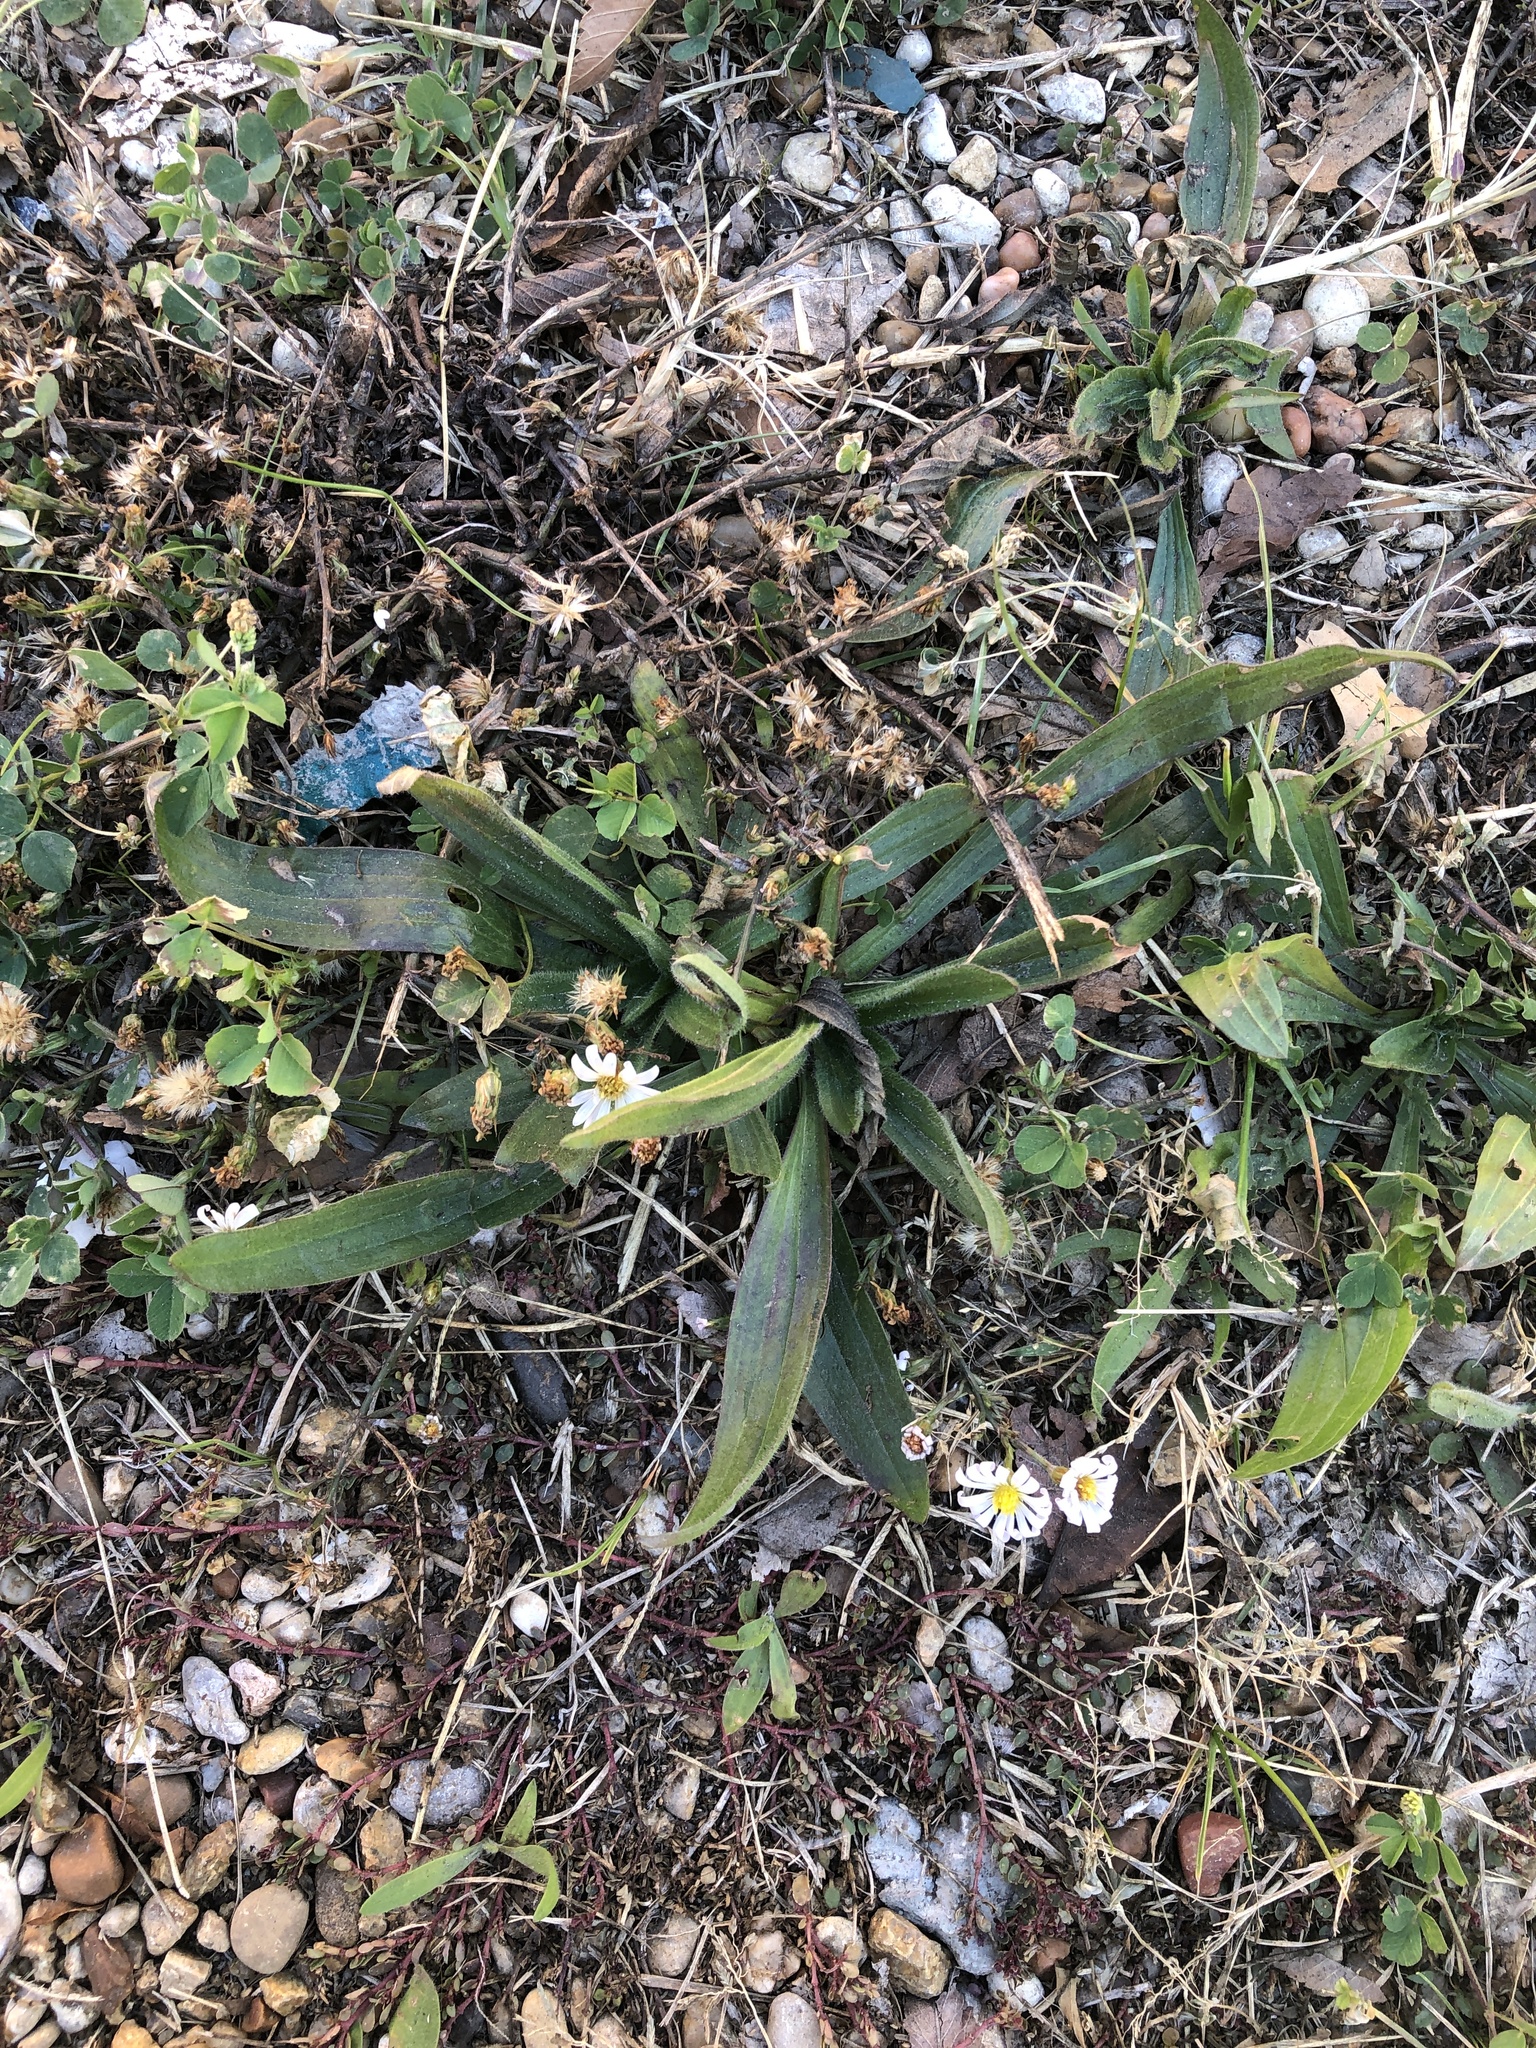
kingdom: Plantae
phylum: Tracheophyta
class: Magnoliopsida
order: Asterales
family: Asteraceae
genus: Symphyotrichum
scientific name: Symphyotrichum divaricatum
